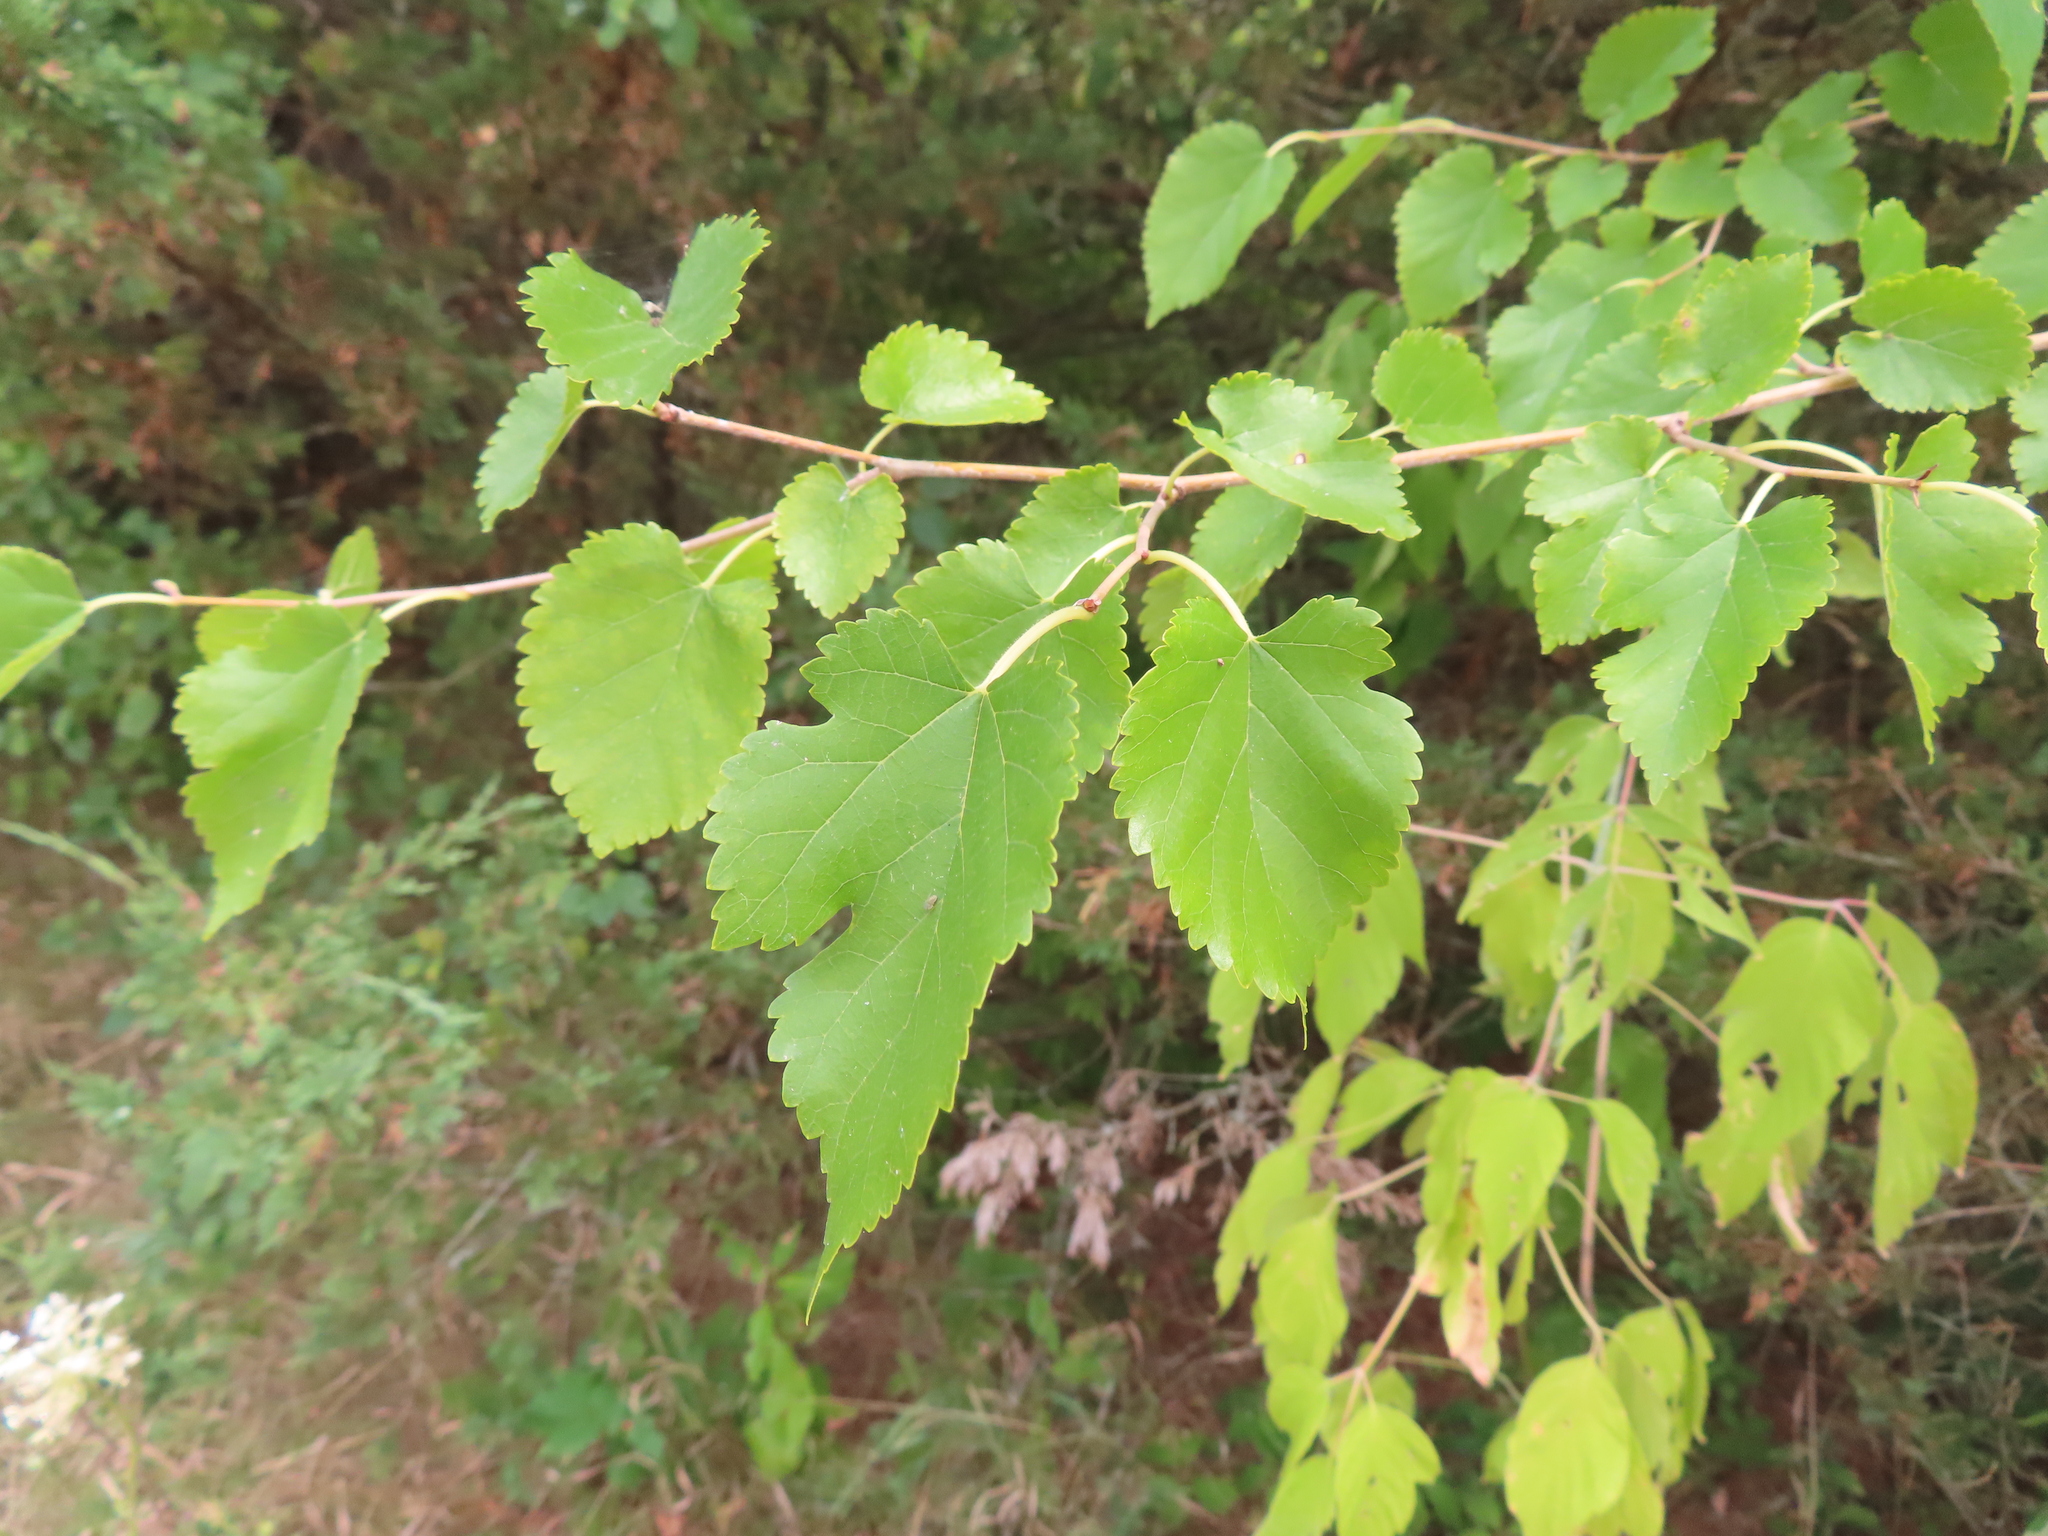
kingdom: Plantae
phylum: Tracheophyta
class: Magnoliopsida
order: Rosales
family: Moraceae
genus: Morus
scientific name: Morus alba
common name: White mulberry
